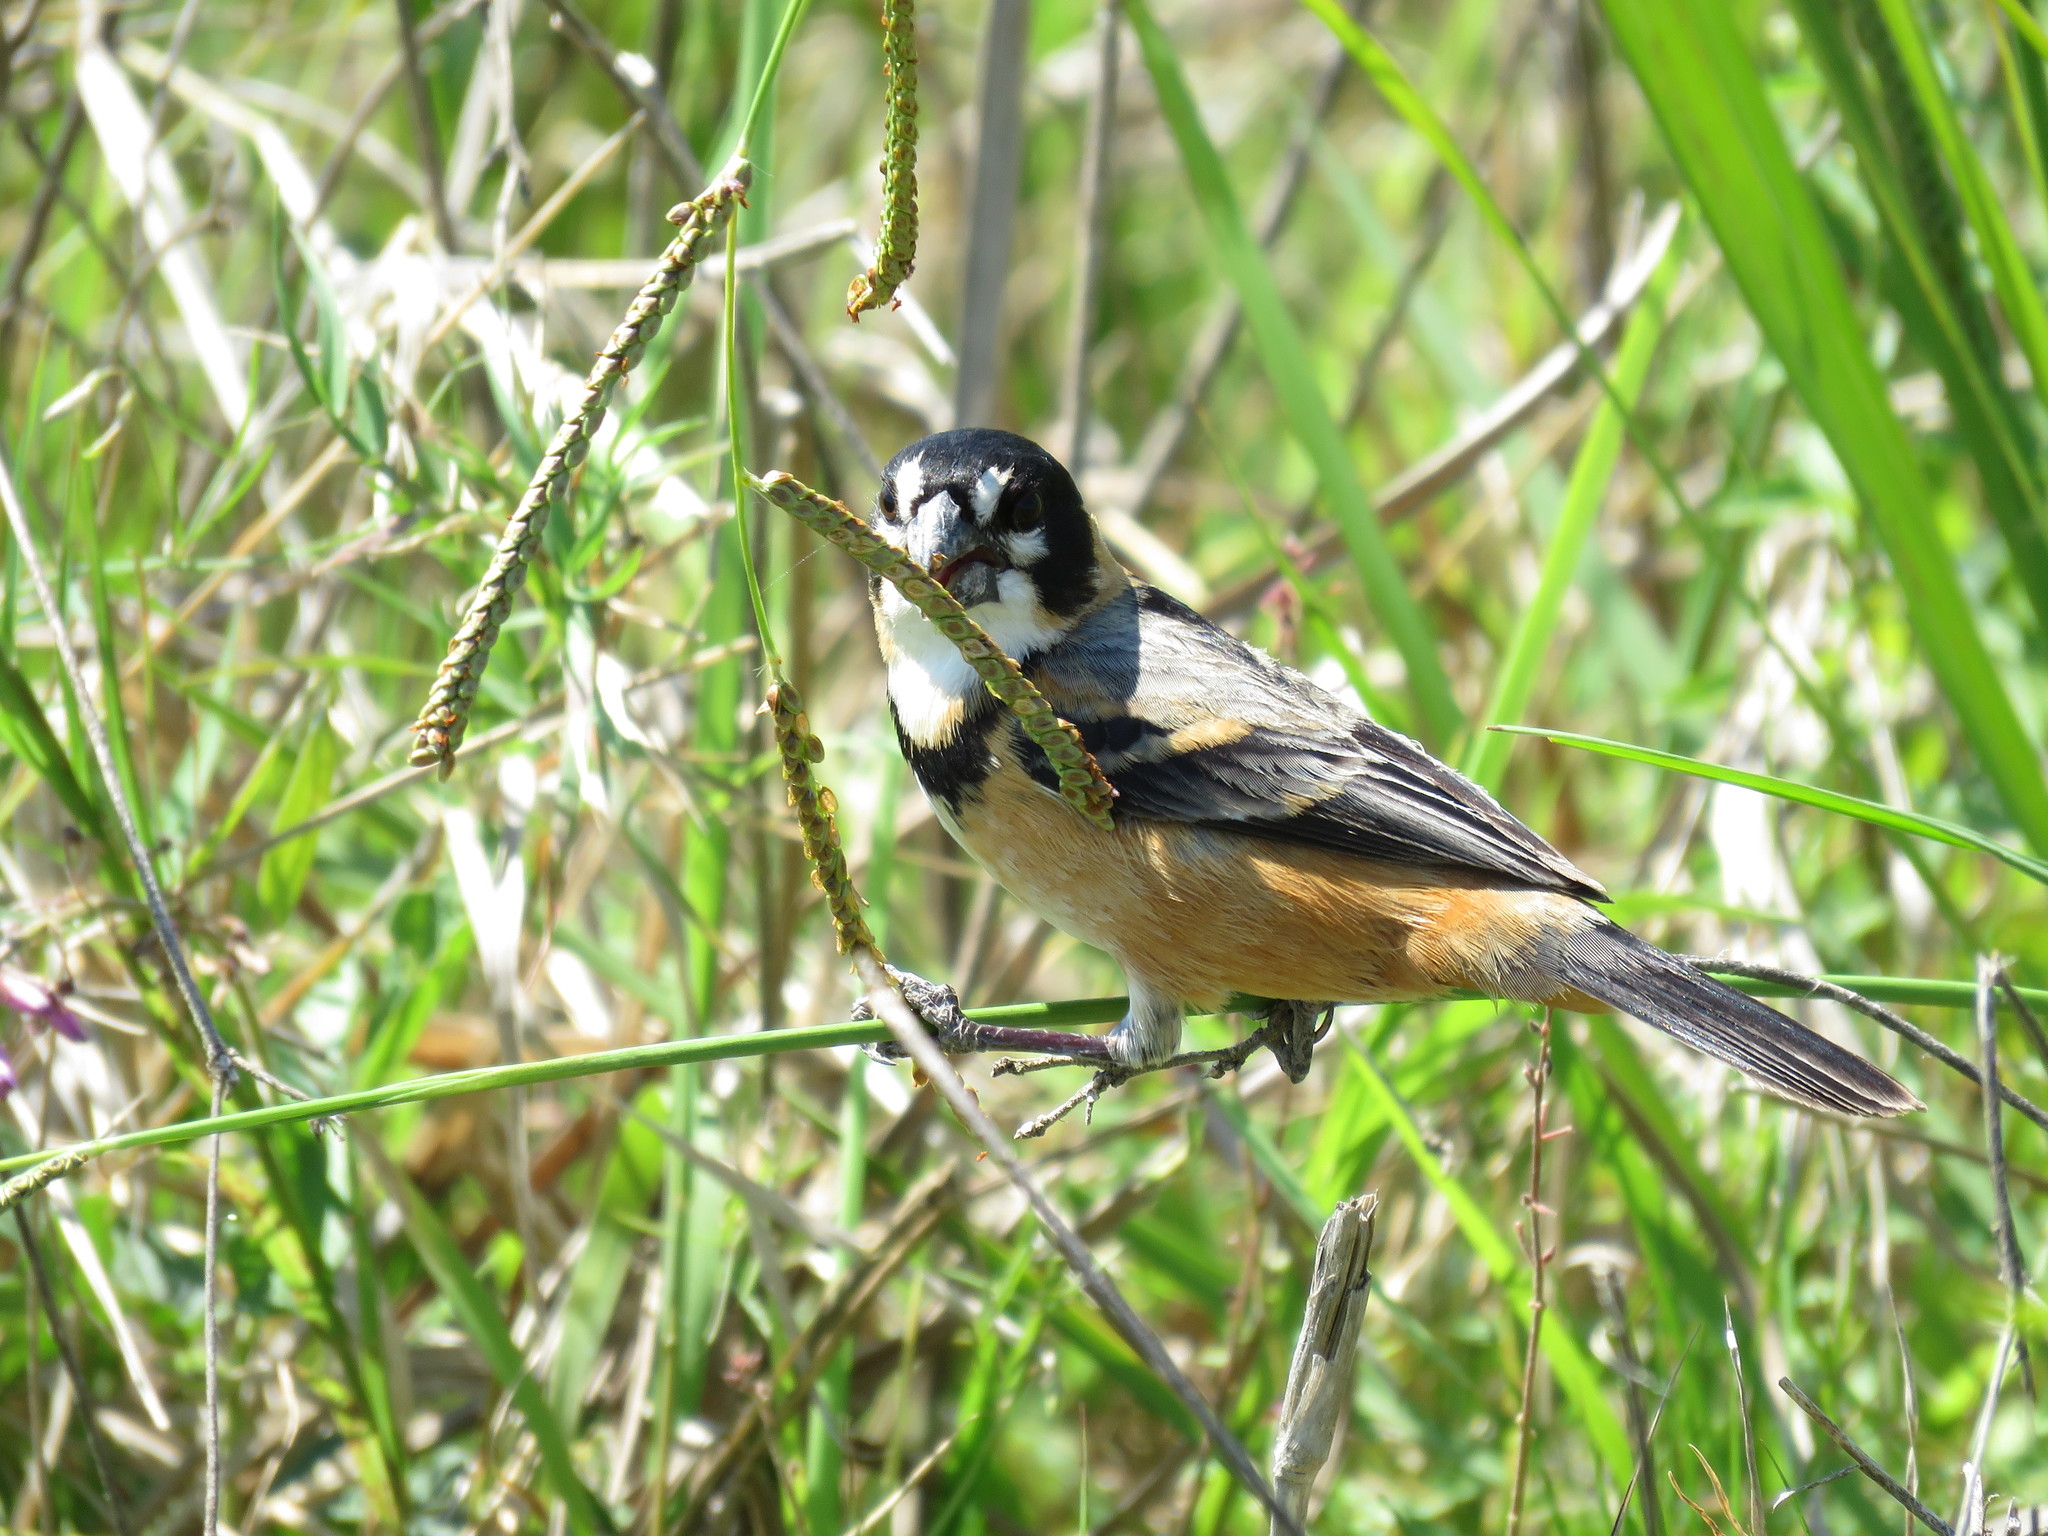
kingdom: Animalia
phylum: Chordata
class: Aves
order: Passeriformes
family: Thraupidae
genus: Sporophila
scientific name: Sporophila collaris
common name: Rusty-collared seedeater
